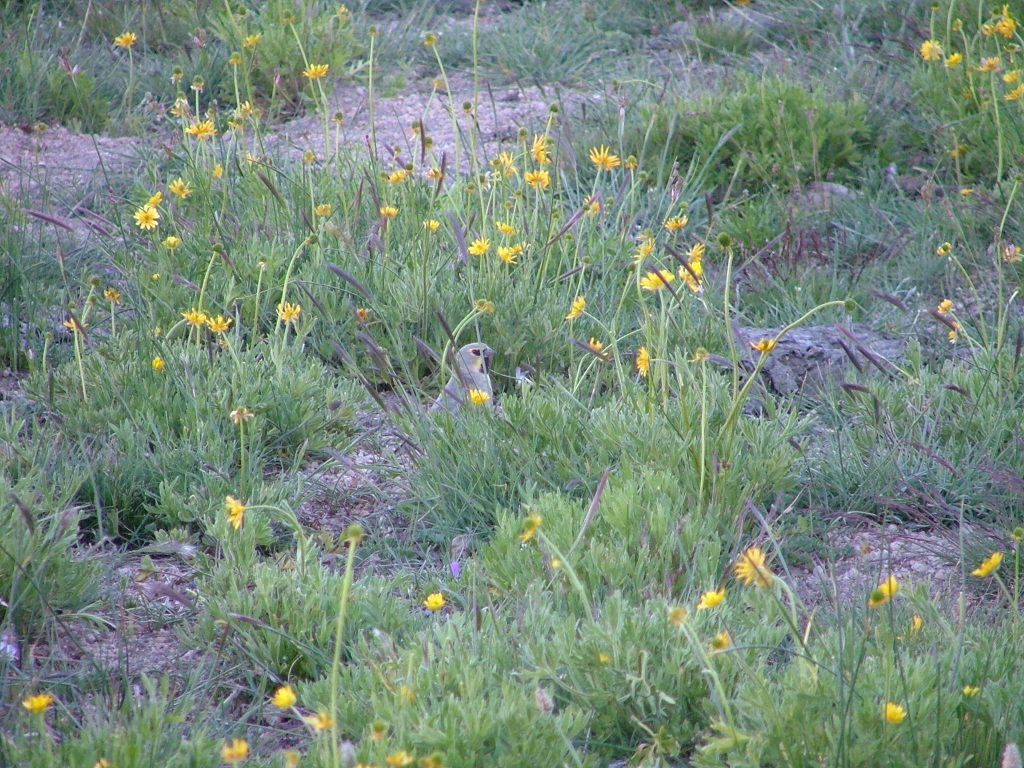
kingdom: Animalia
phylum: Chordata
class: Aves
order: Passeriformes
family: Thraupidae
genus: Melanodera
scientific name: Melanodera xanthogramma
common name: Yellow-bridled finch
